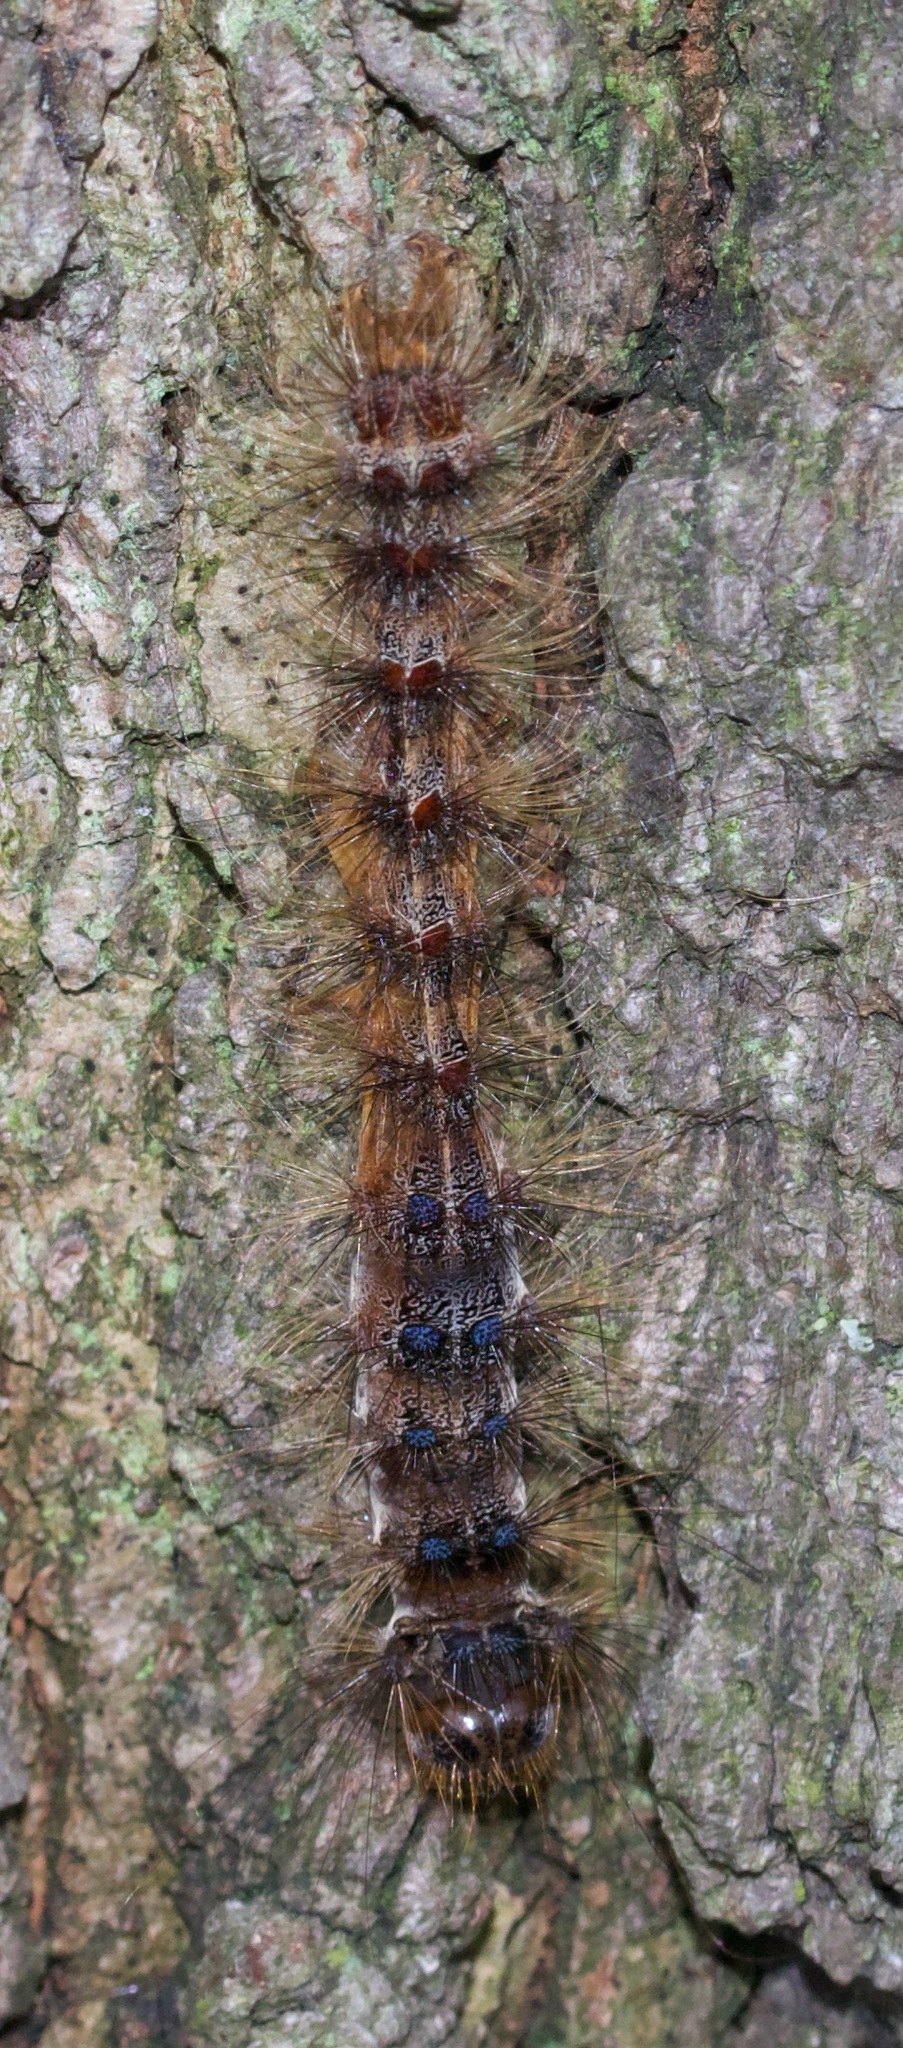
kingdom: Animalia
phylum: Arthropoda
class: Insecta
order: Lepidoptera
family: Erebidae
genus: Lymantria
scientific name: Lymantria dispar
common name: Gypsy moth
